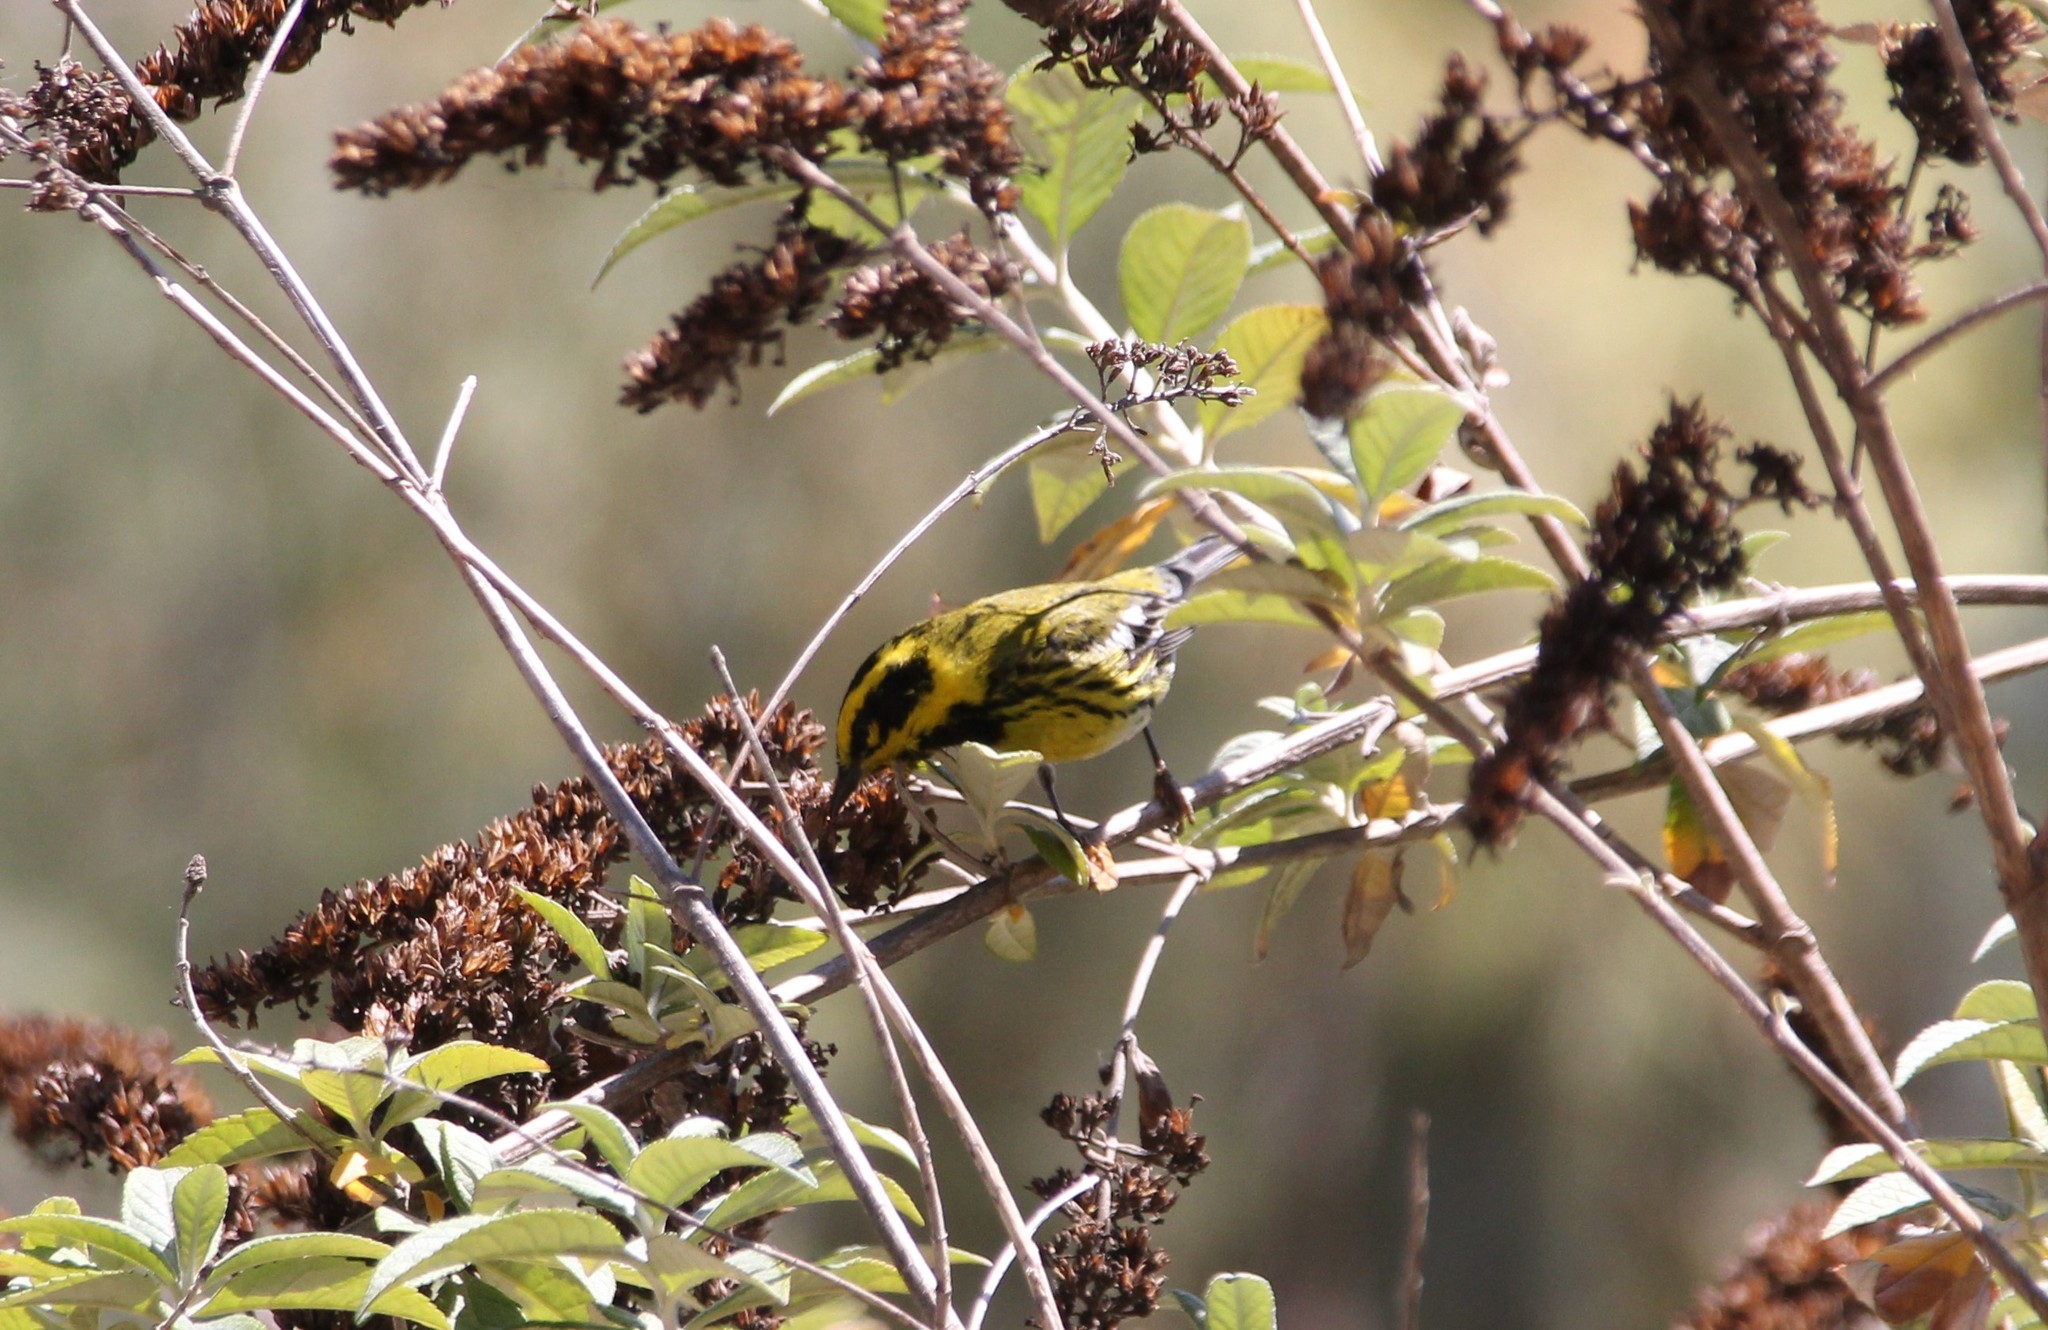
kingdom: Animalia
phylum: Chordata
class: Aves
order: Passeriformes
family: Parulidae
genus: Setophaga
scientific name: Setophaga townsendi
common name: Townsend's warbler
